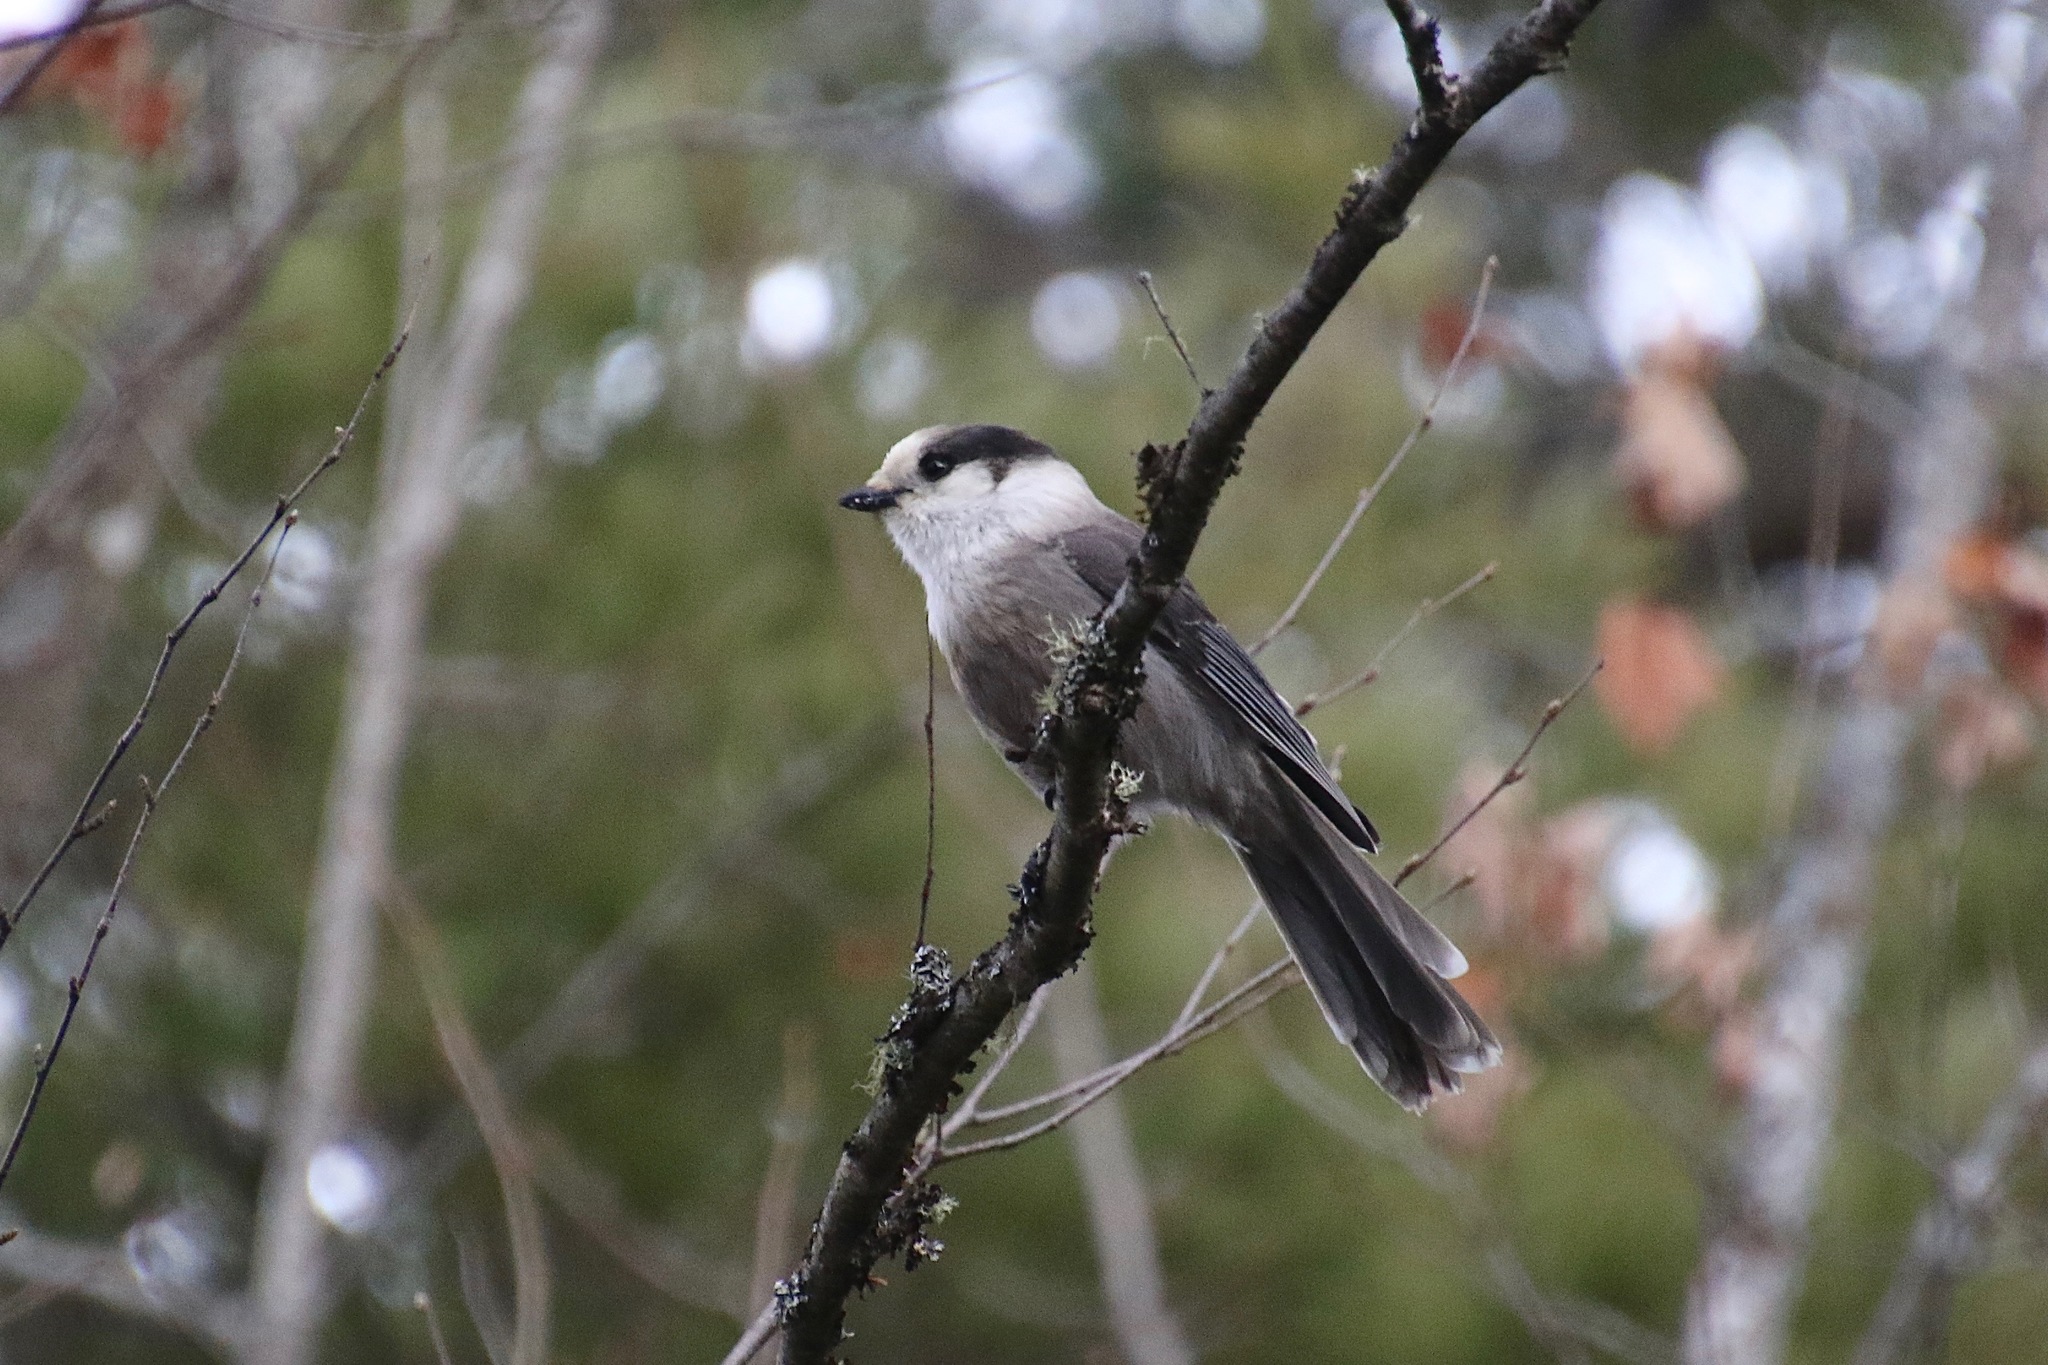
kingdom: Animalia
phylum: Chordata
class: Aves
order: Passeriformes
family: Corvidae
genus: Perisoreus
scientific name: Perisoreus canadensis
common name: Gray jay
